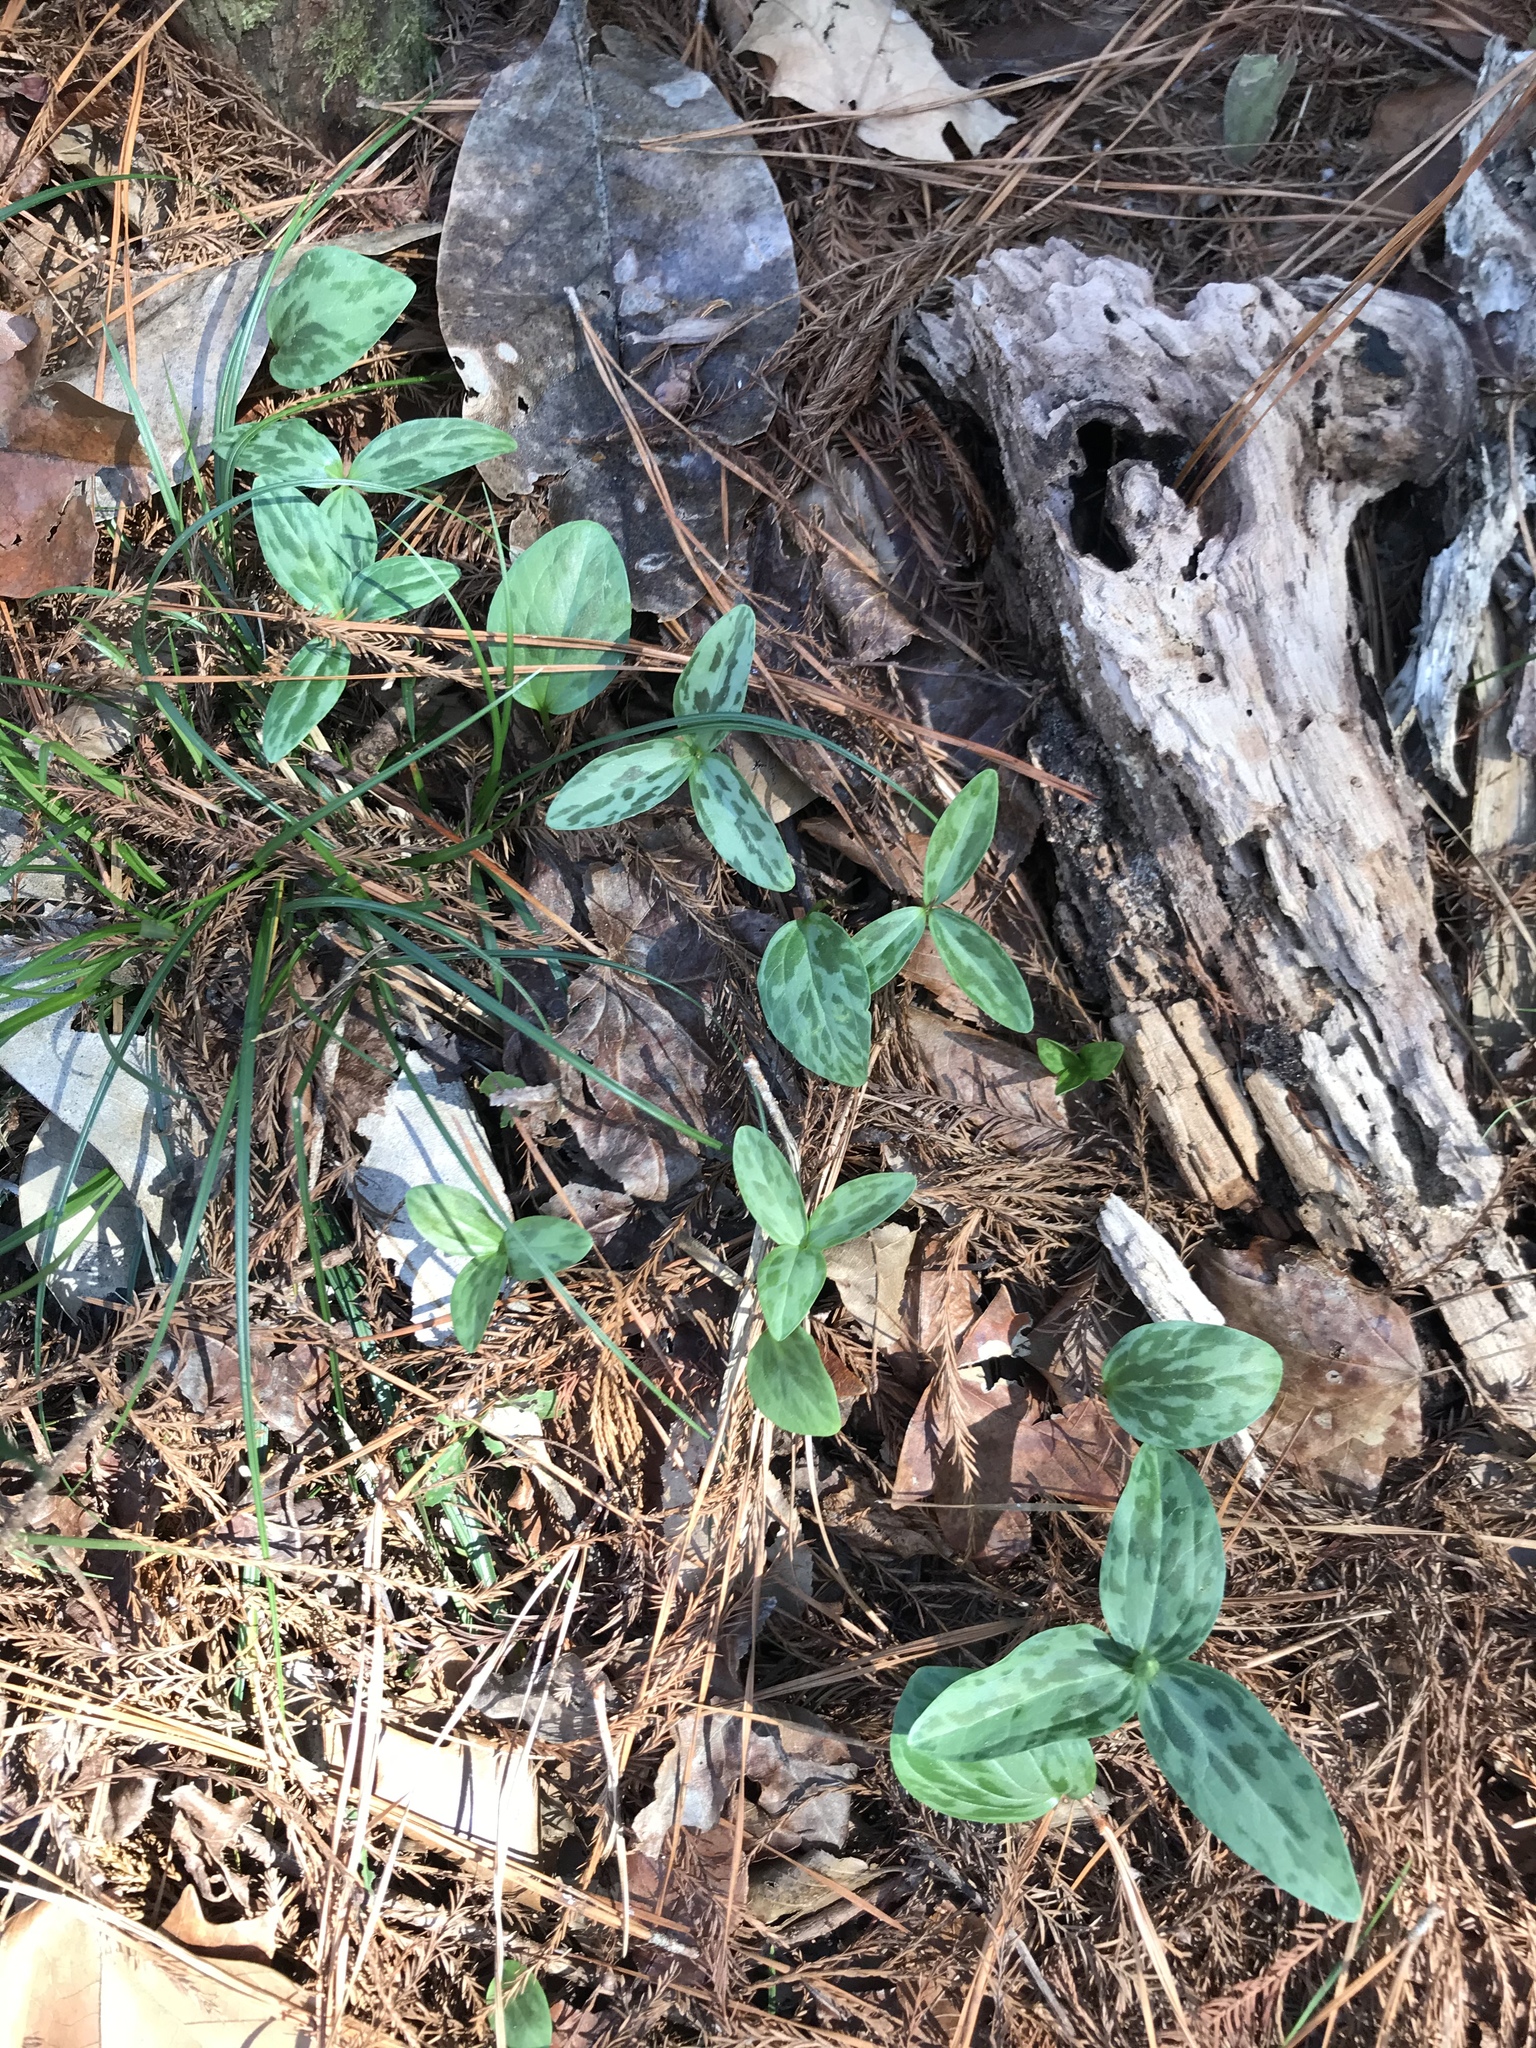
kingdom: Plantae
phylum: Tracheophyta
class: Liliopsida
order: Liliales
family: Melanthiaceae
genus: Trillium
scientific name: Trillium gracile
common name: Graceful trillium
